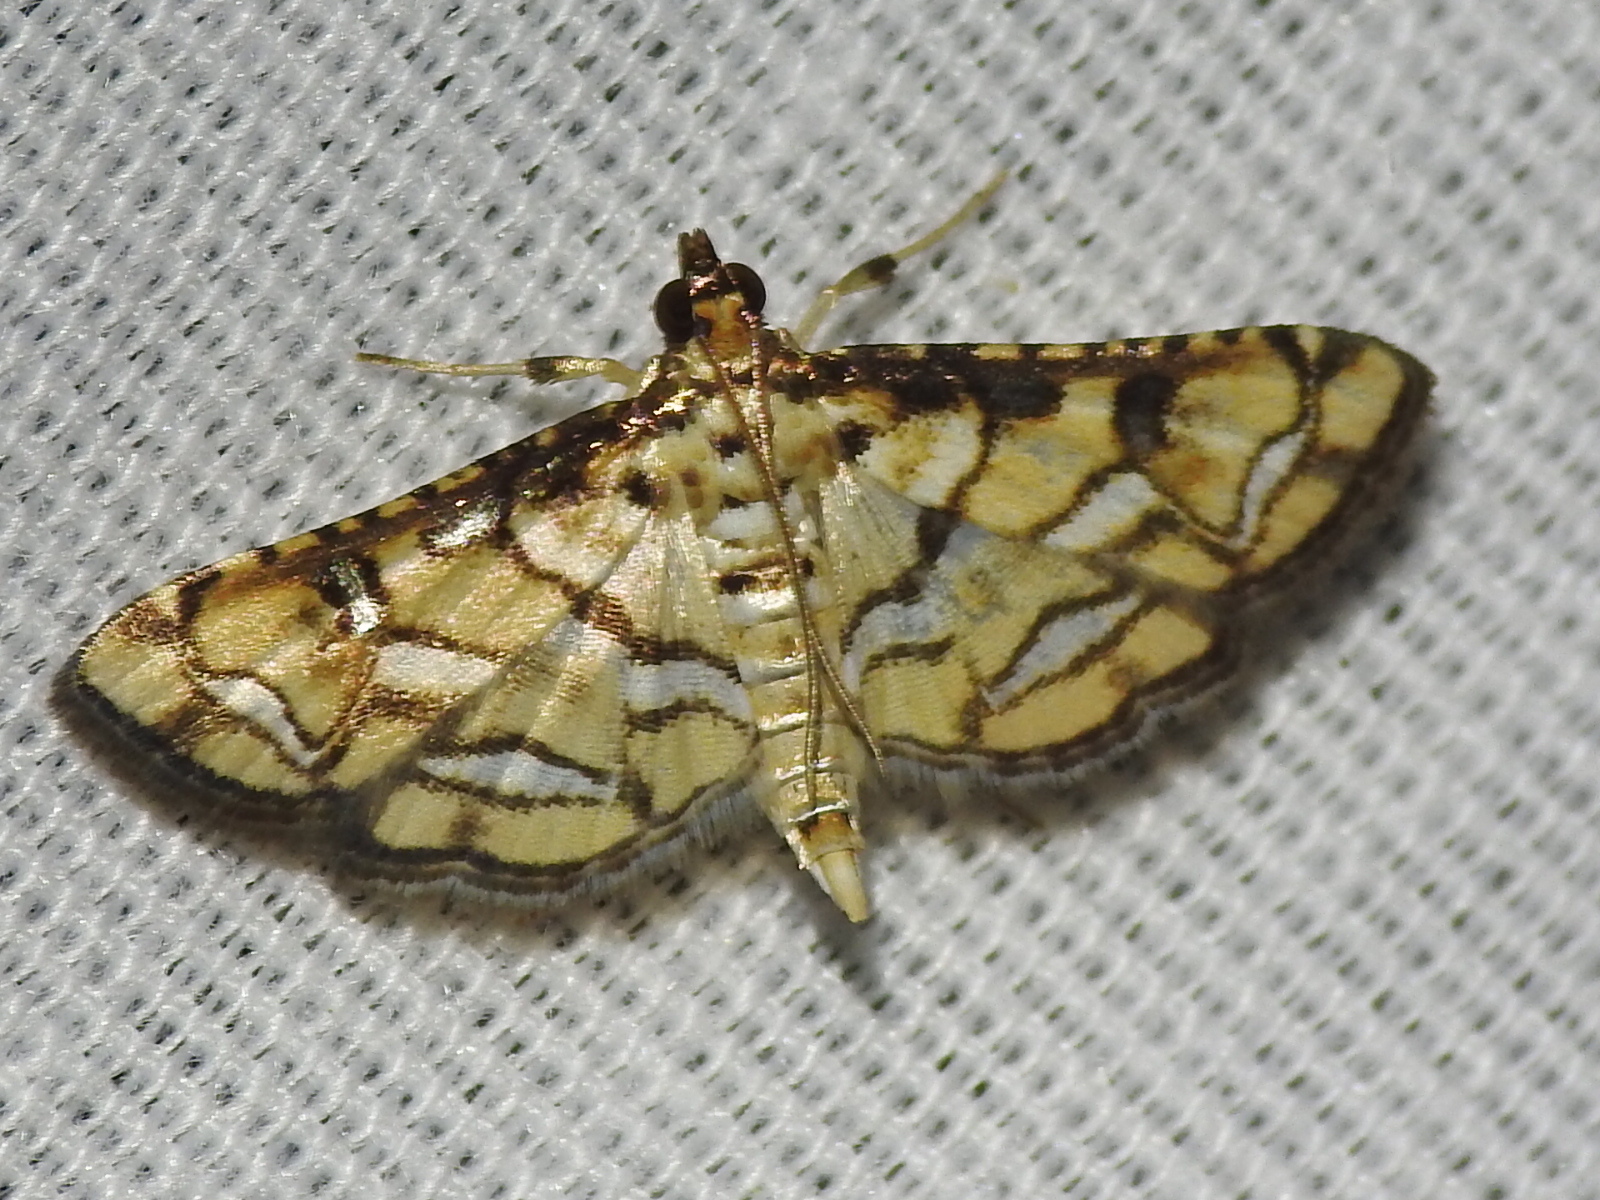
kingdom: Animalia
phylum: Arthropoda
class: Insecta
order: Lepidoptera
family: Crambidae
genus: Hileithia
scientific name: Hileithia magualis
